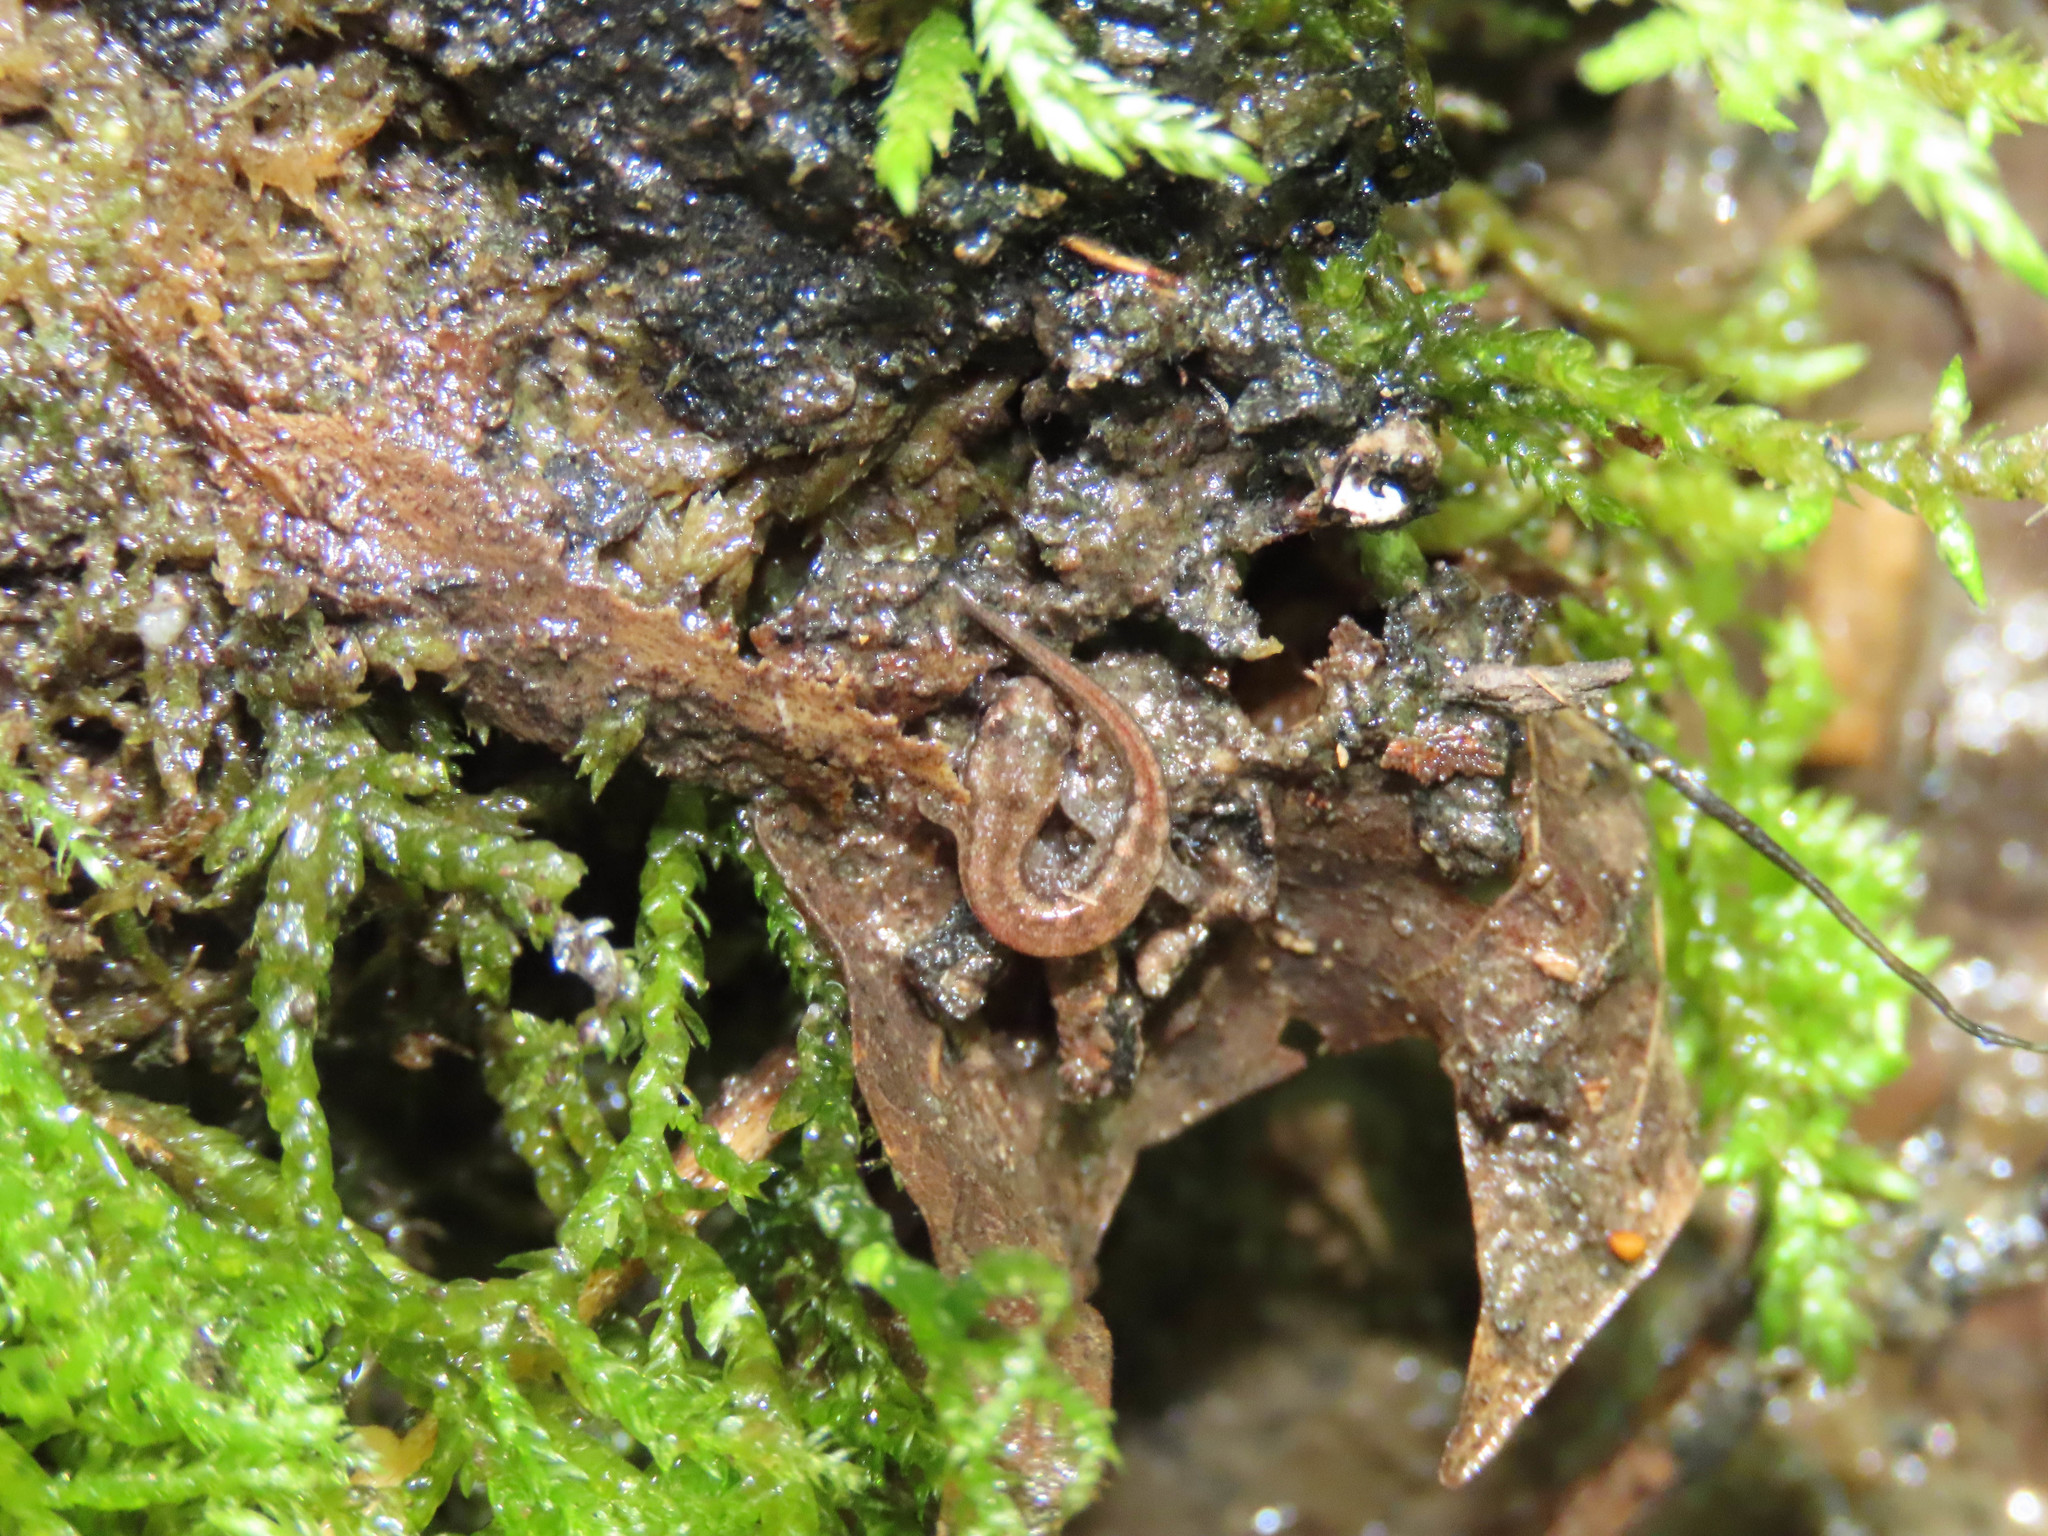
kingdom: Animalia
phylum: Chordata
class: Amphibia
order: Caudata
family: Plethodontidae
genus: Desmognathus
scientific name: Desmognathus ochrophaeus
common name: Allegheny mountain dusky salamander
